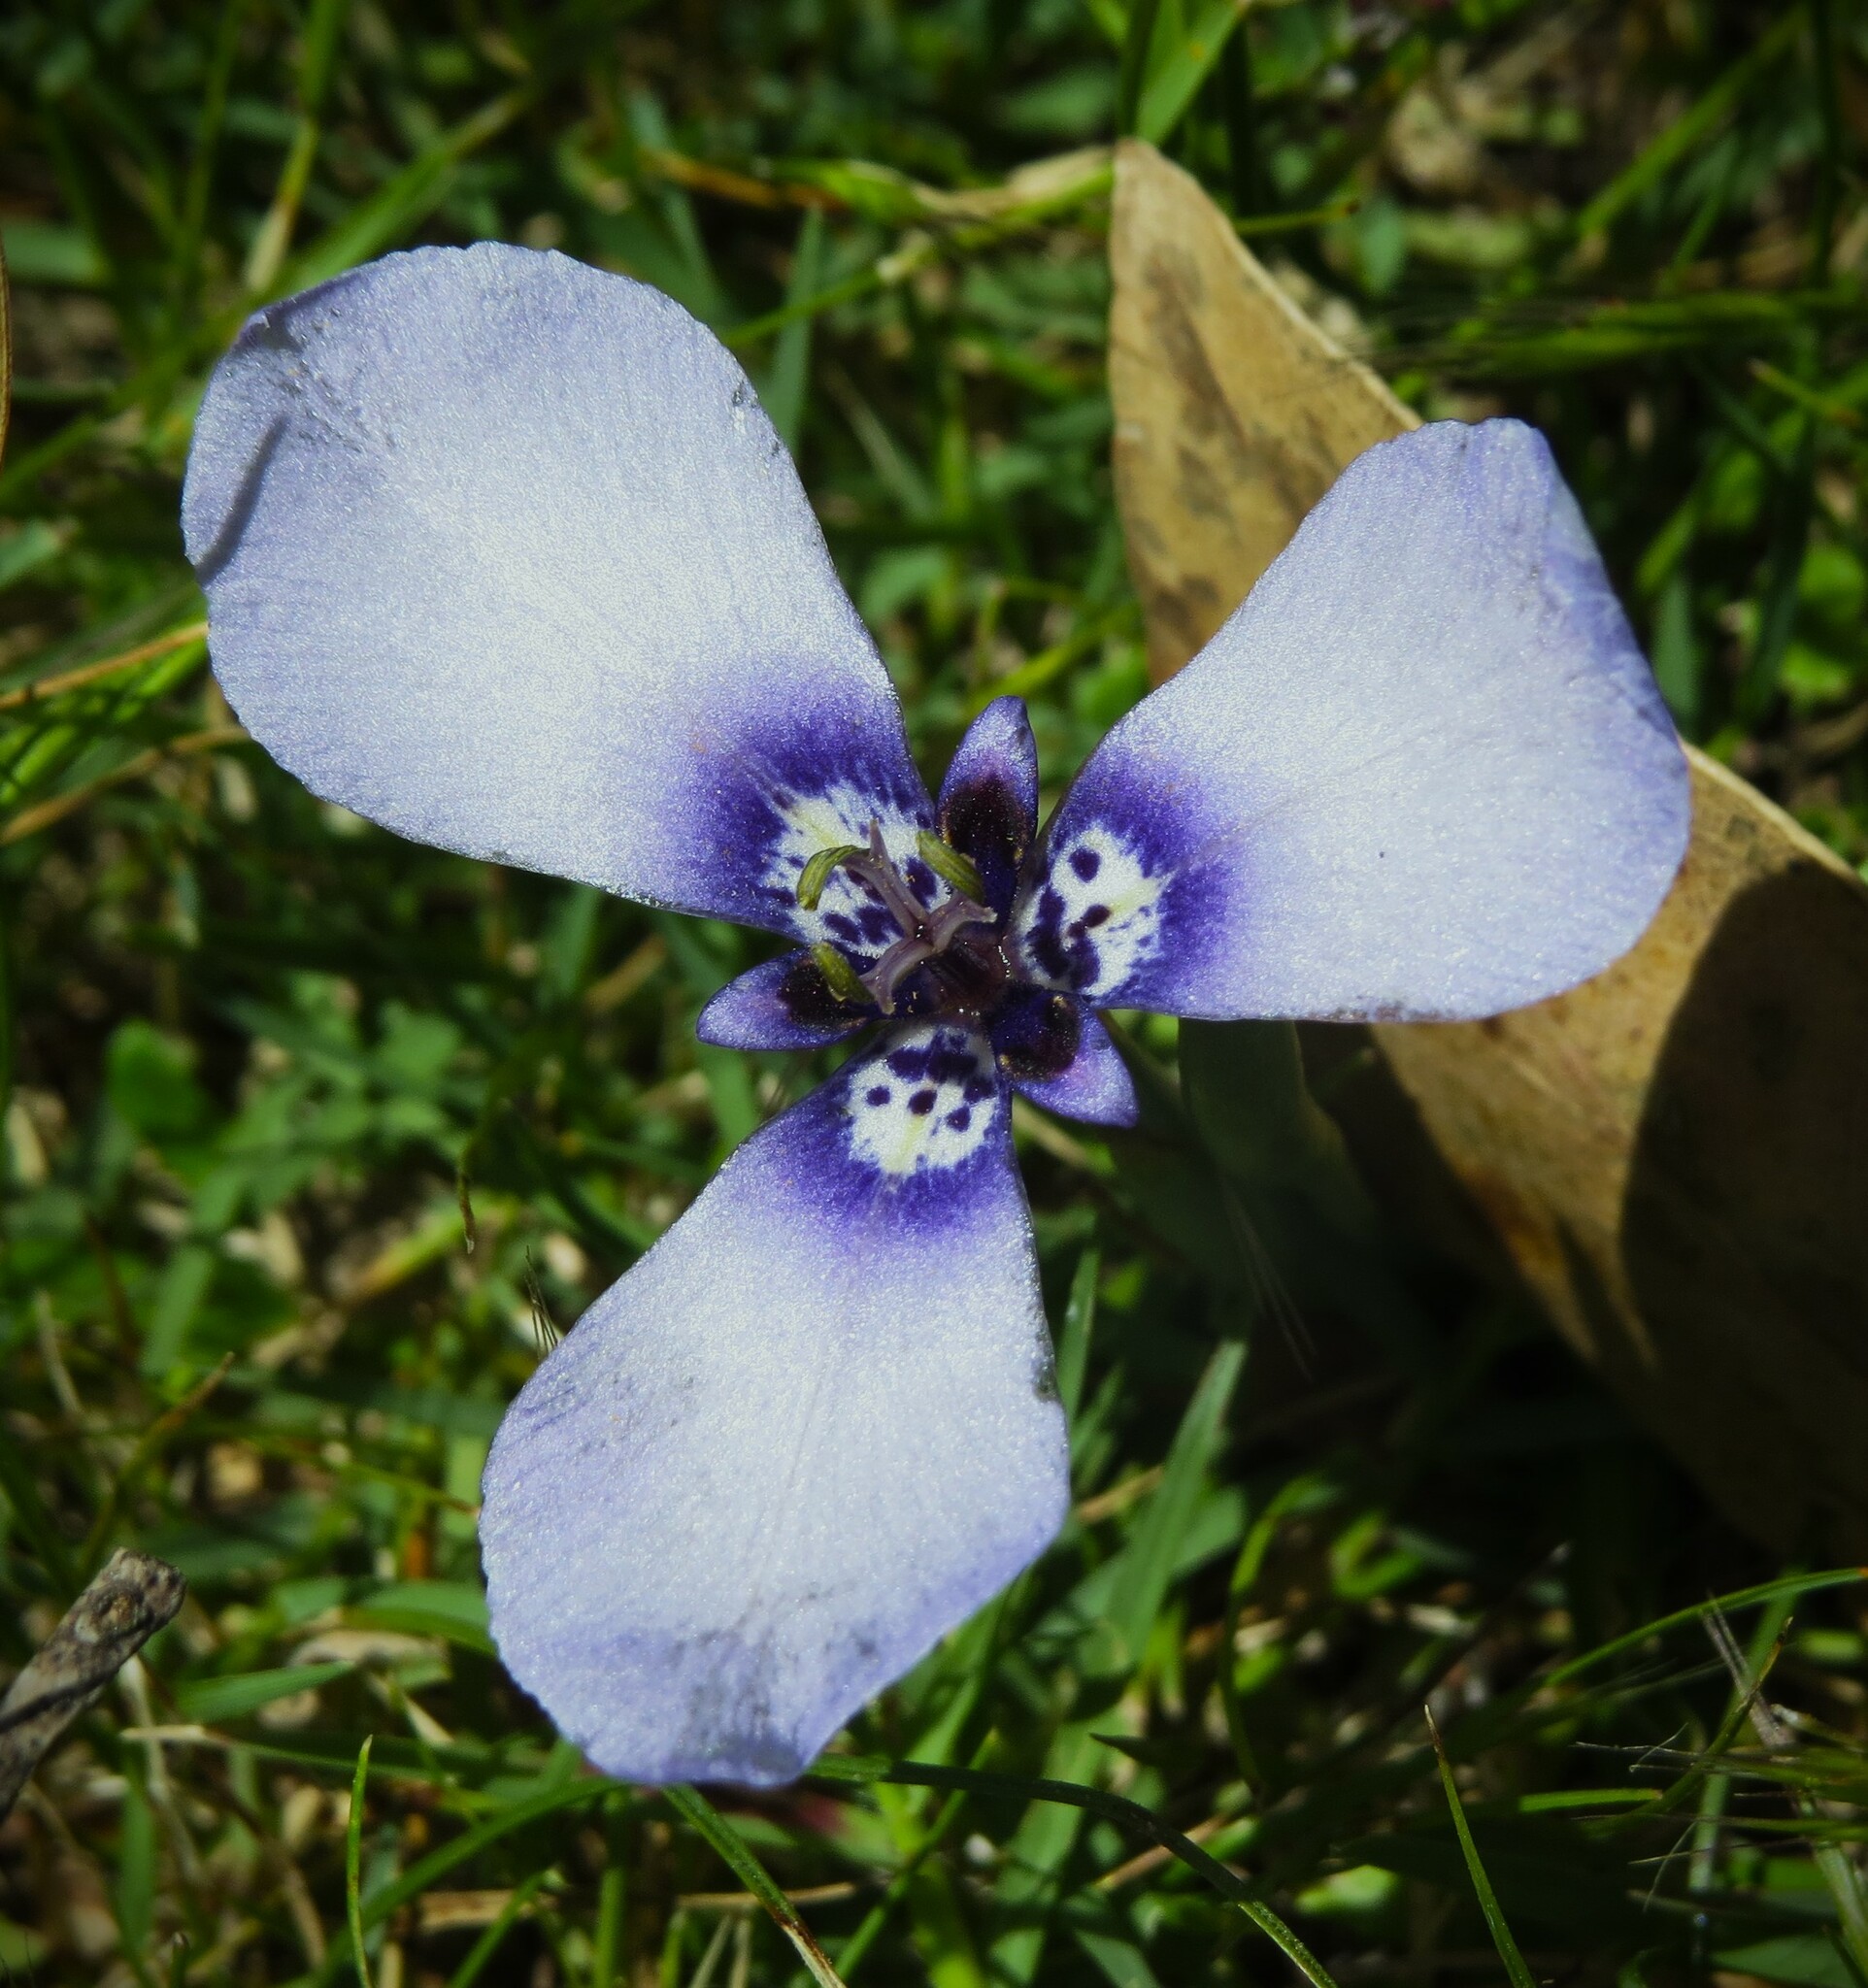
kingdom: Plantae
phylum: Tracheophyta
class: Liliopsida
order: Asparagales
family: Iridaceae
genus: Herbertia
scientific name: Herbertia lahue
